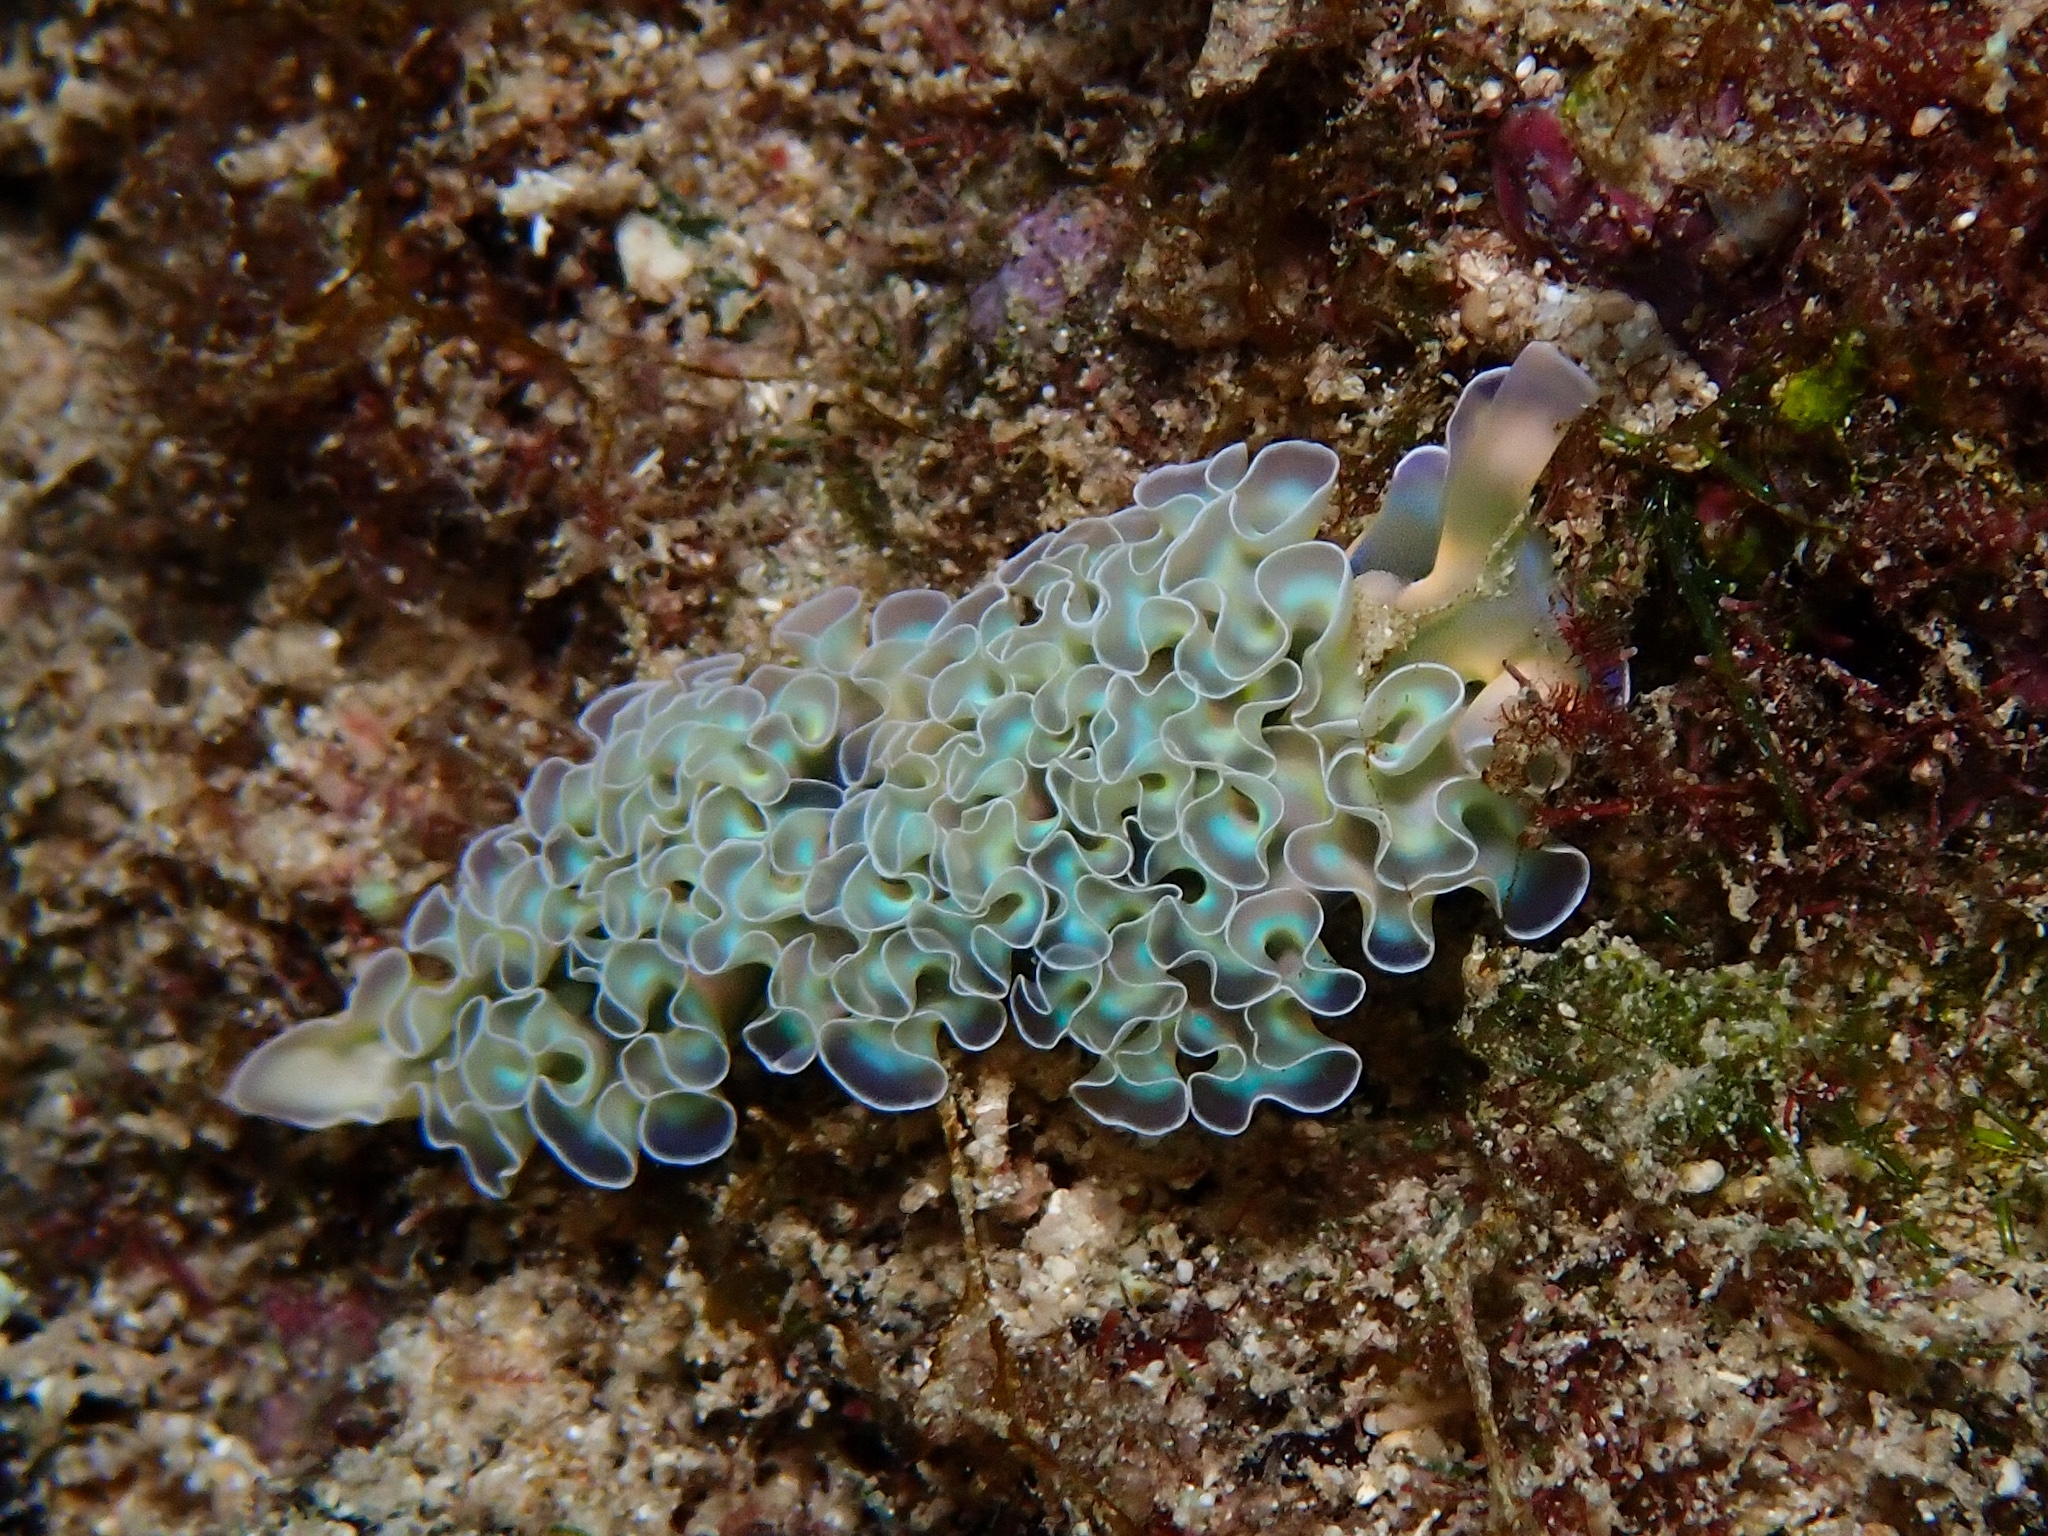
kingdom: Animalia
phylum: Mollusca
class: Gastropoda
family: Plakobranchidae
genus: Elysia
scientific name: Elysia crispata
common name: Lettuce slug
